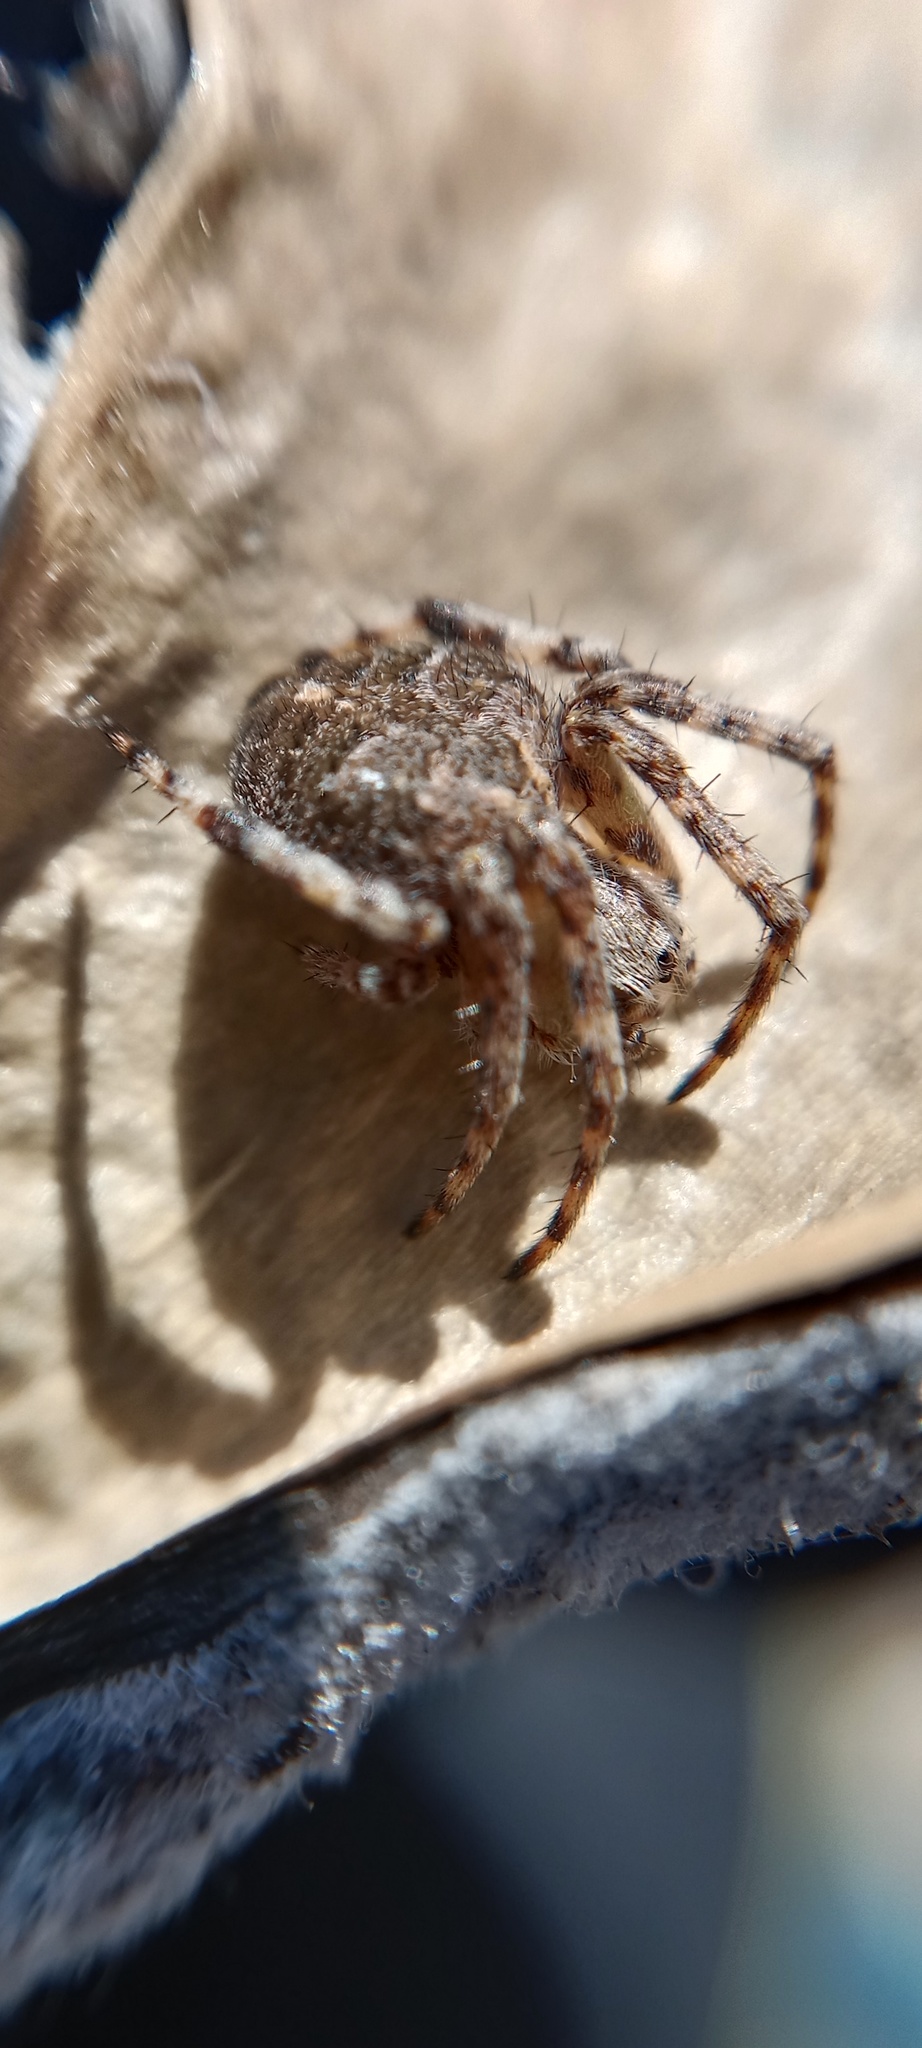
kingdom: Animalia
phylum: Arthropoda
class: Arachnida
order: Araneae
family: Araneidae
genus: Agalenatea
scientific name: Agalenatea redii
